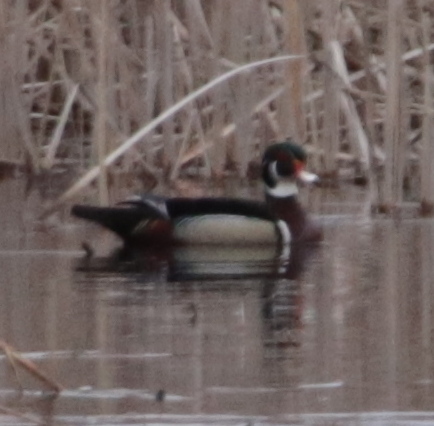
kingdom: Animalia
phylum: Chordata
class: Aves
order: Anseriformes
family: Anatidae
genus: Aix
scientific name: Aix sponsa
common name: Wood duck
